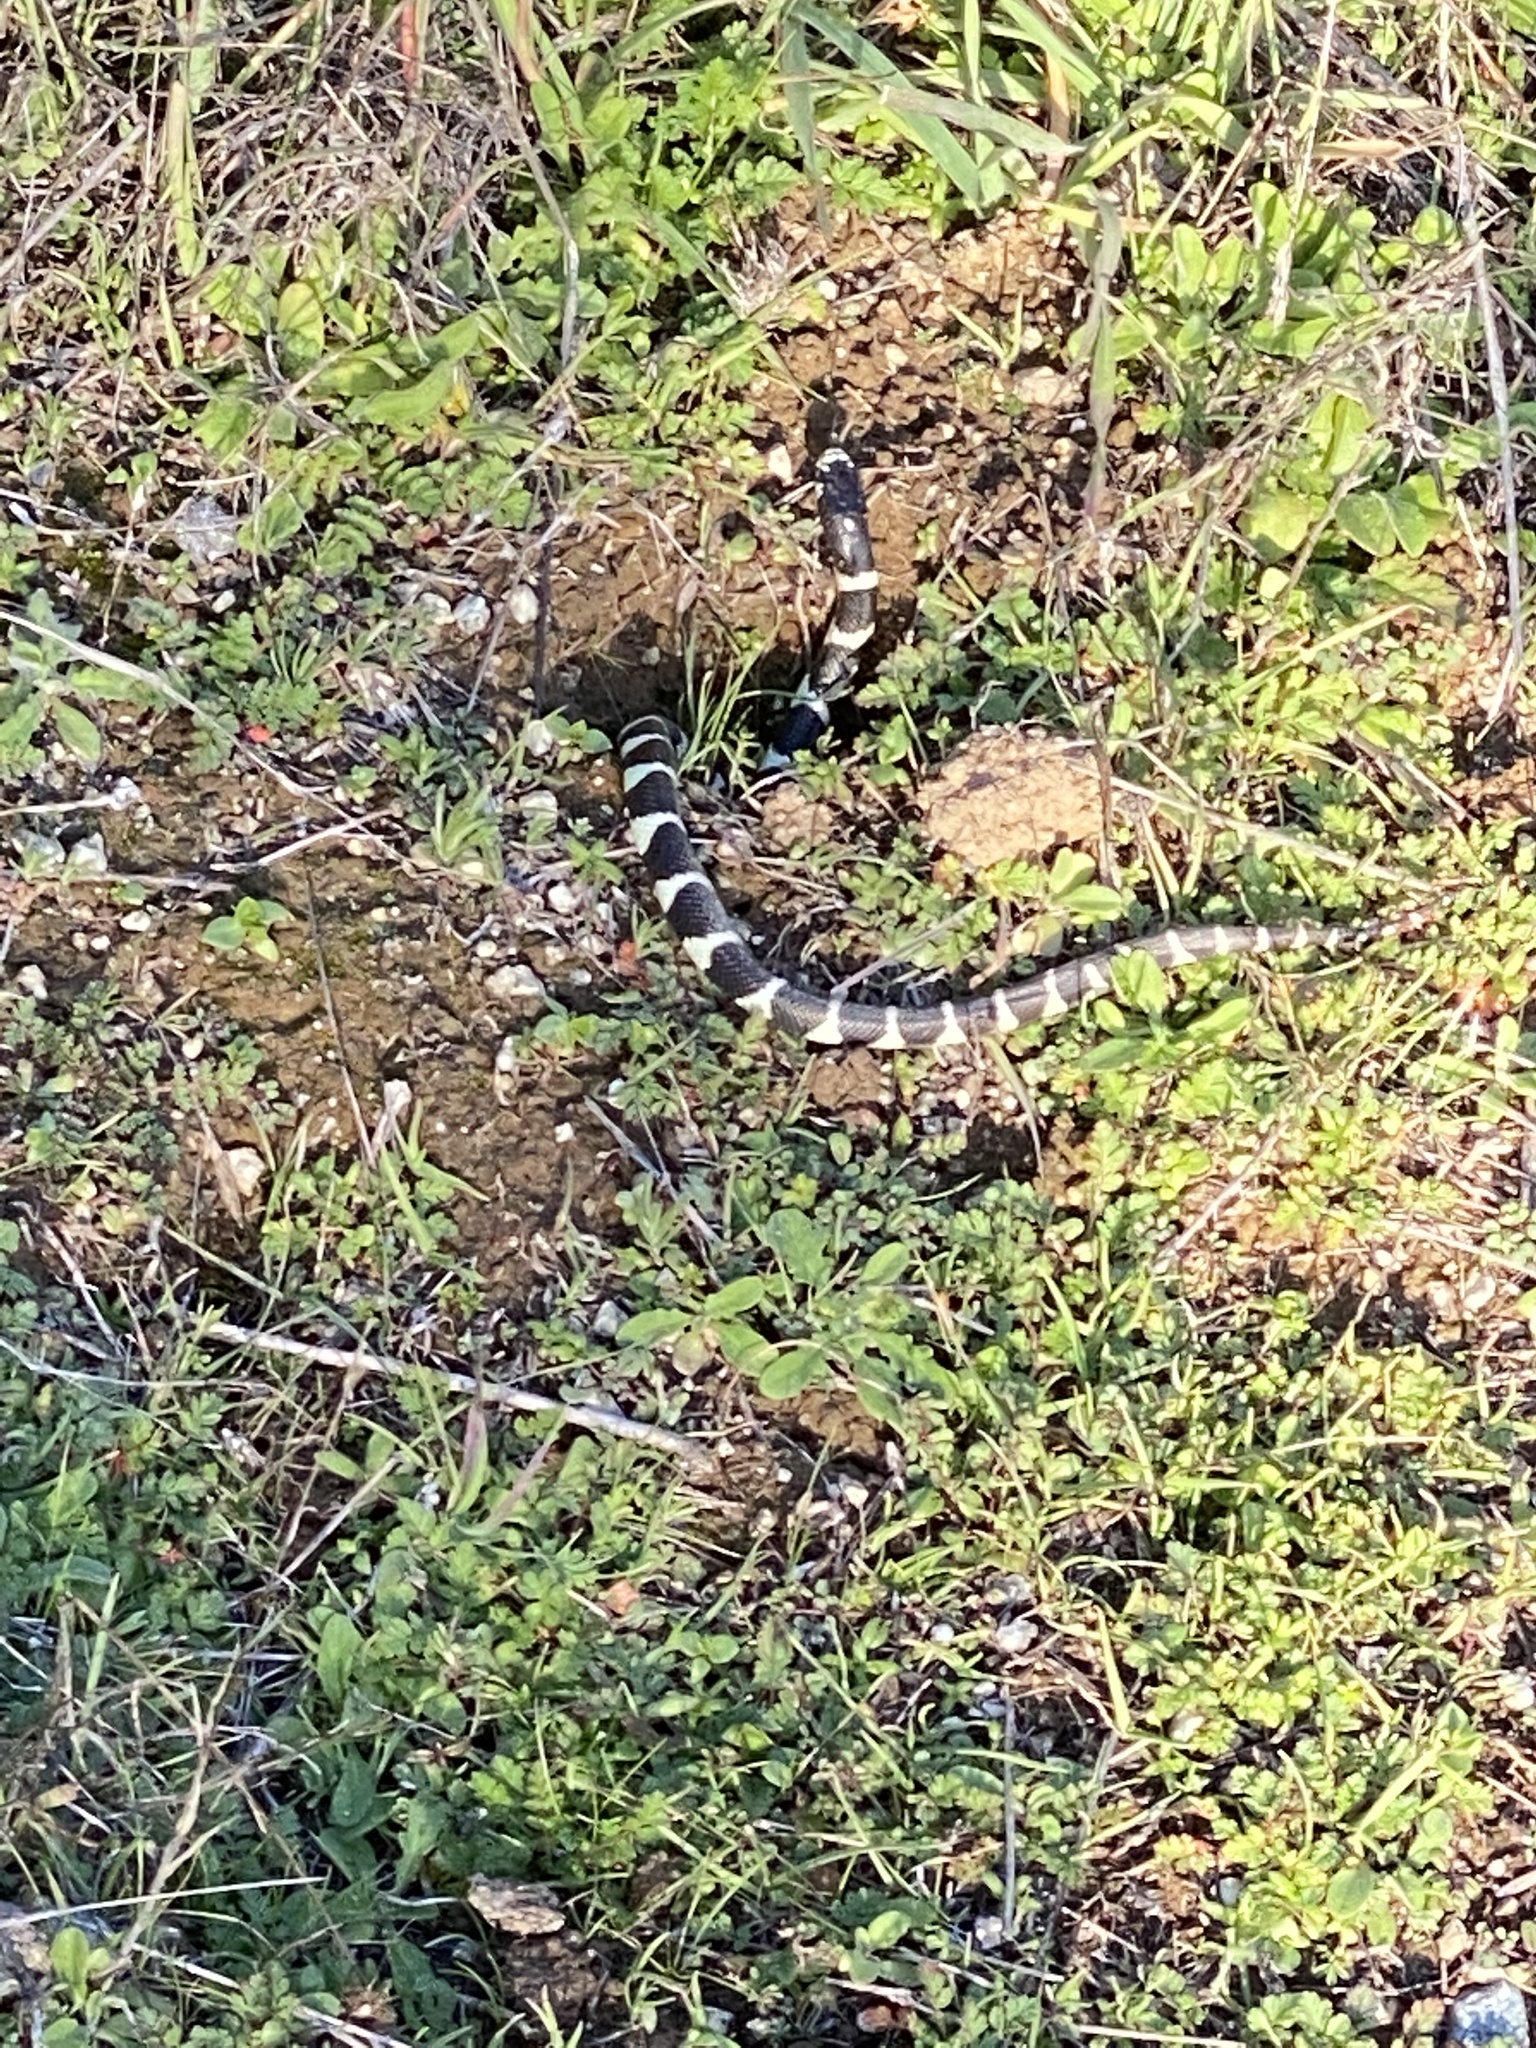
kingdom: Animalia
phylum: Chordata
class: Squamata
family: Colubridae
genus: Lampropeltis
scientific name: Lampropeltis californiae
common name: California kingsnake
